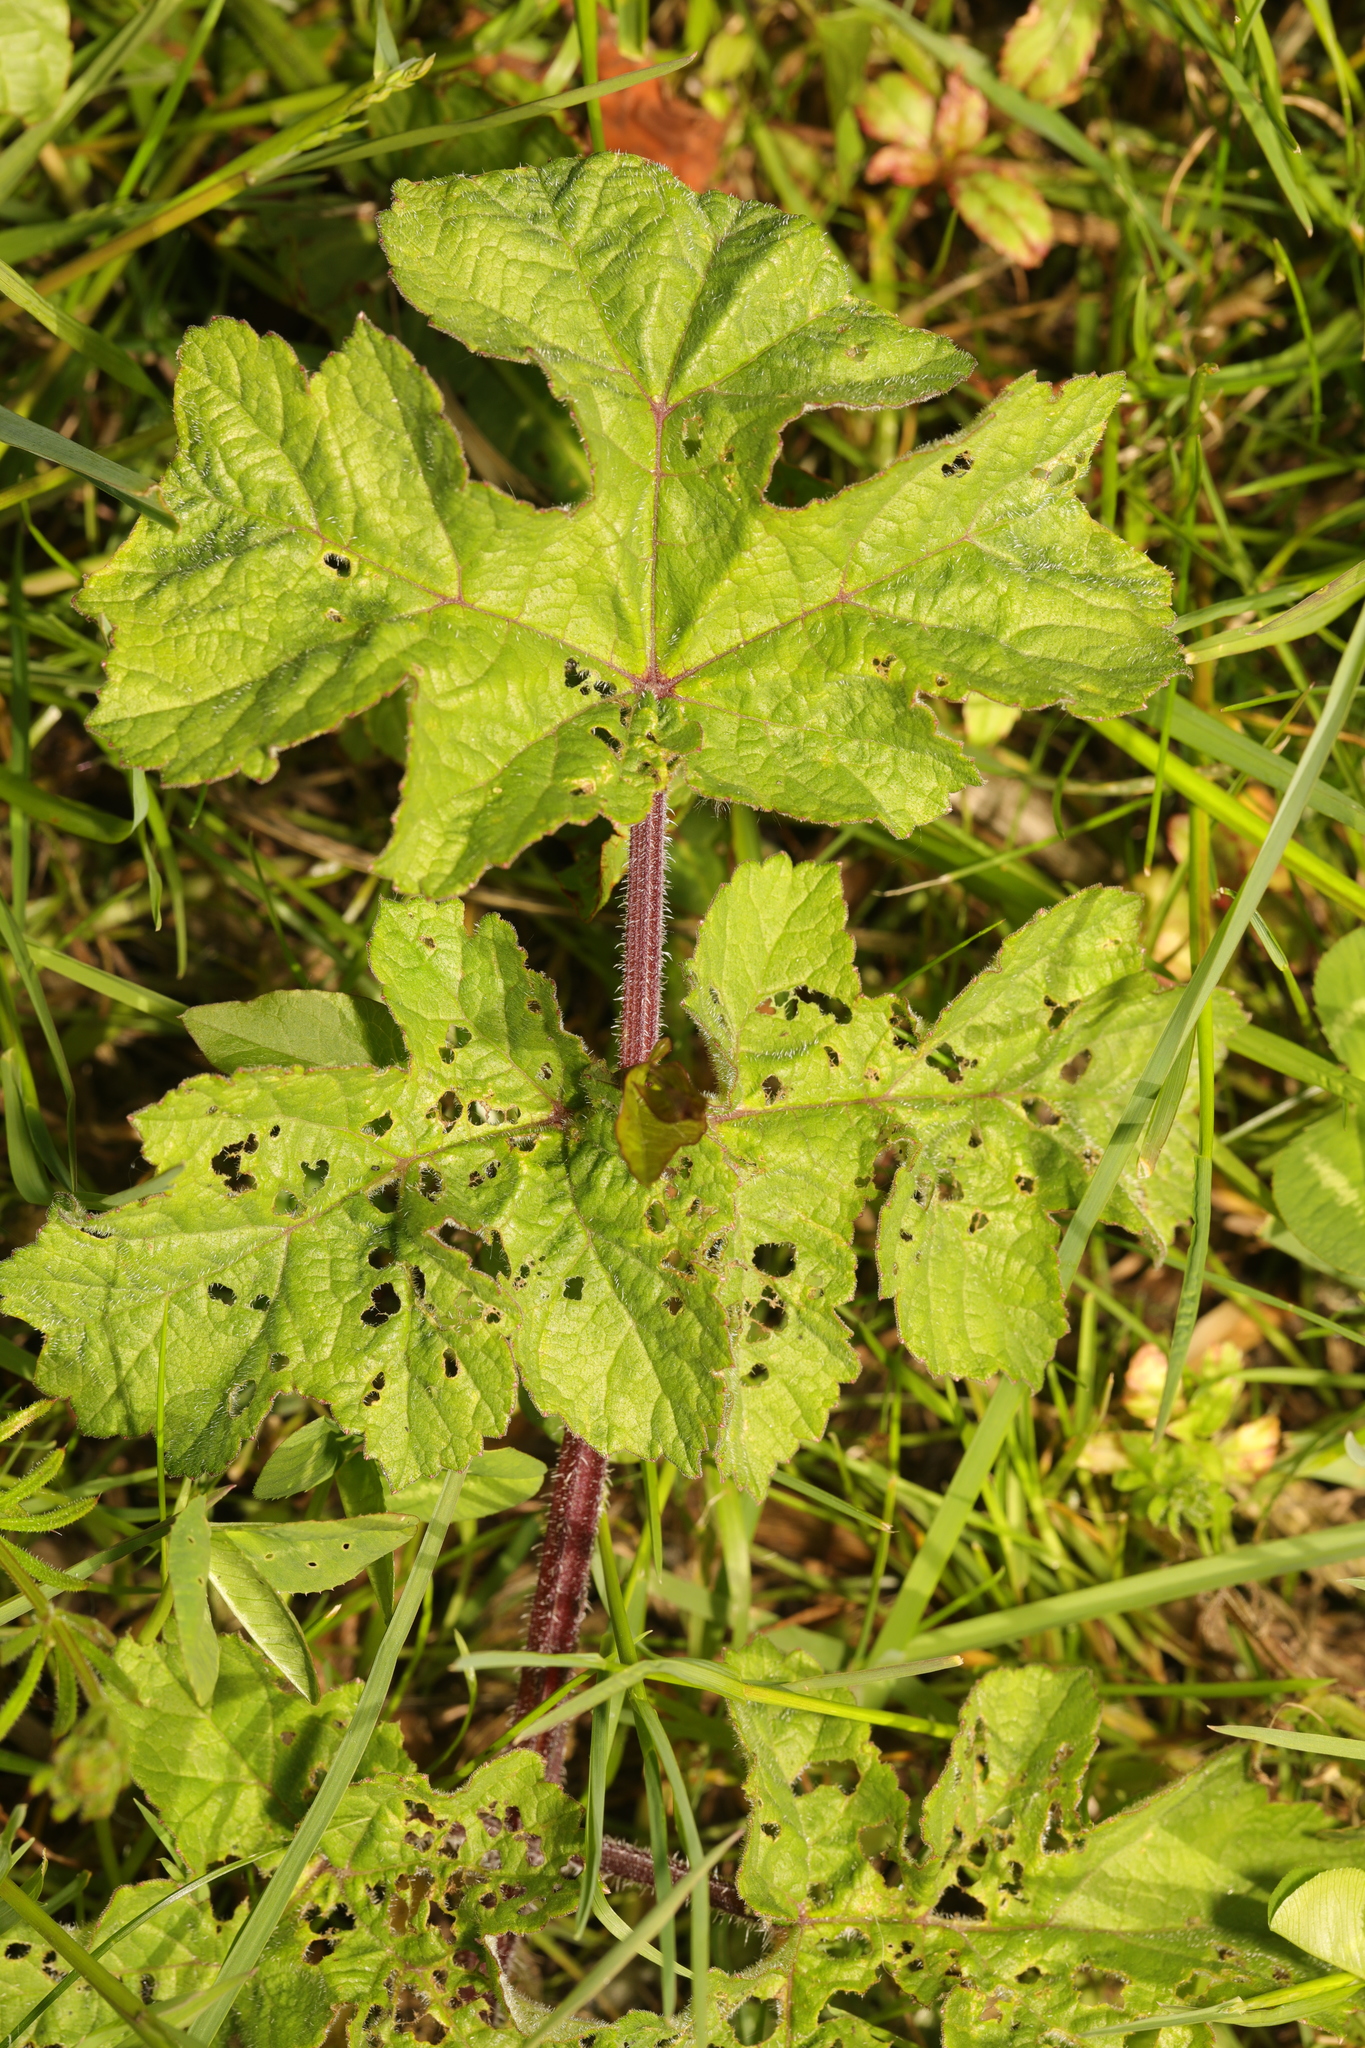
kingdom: Plantae
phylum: Tracheophyta
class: Magnoliopsida
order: Apiales
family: Apiaceae
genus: Heracleum
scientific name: Heracleum sphondylium
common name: Hogweed
